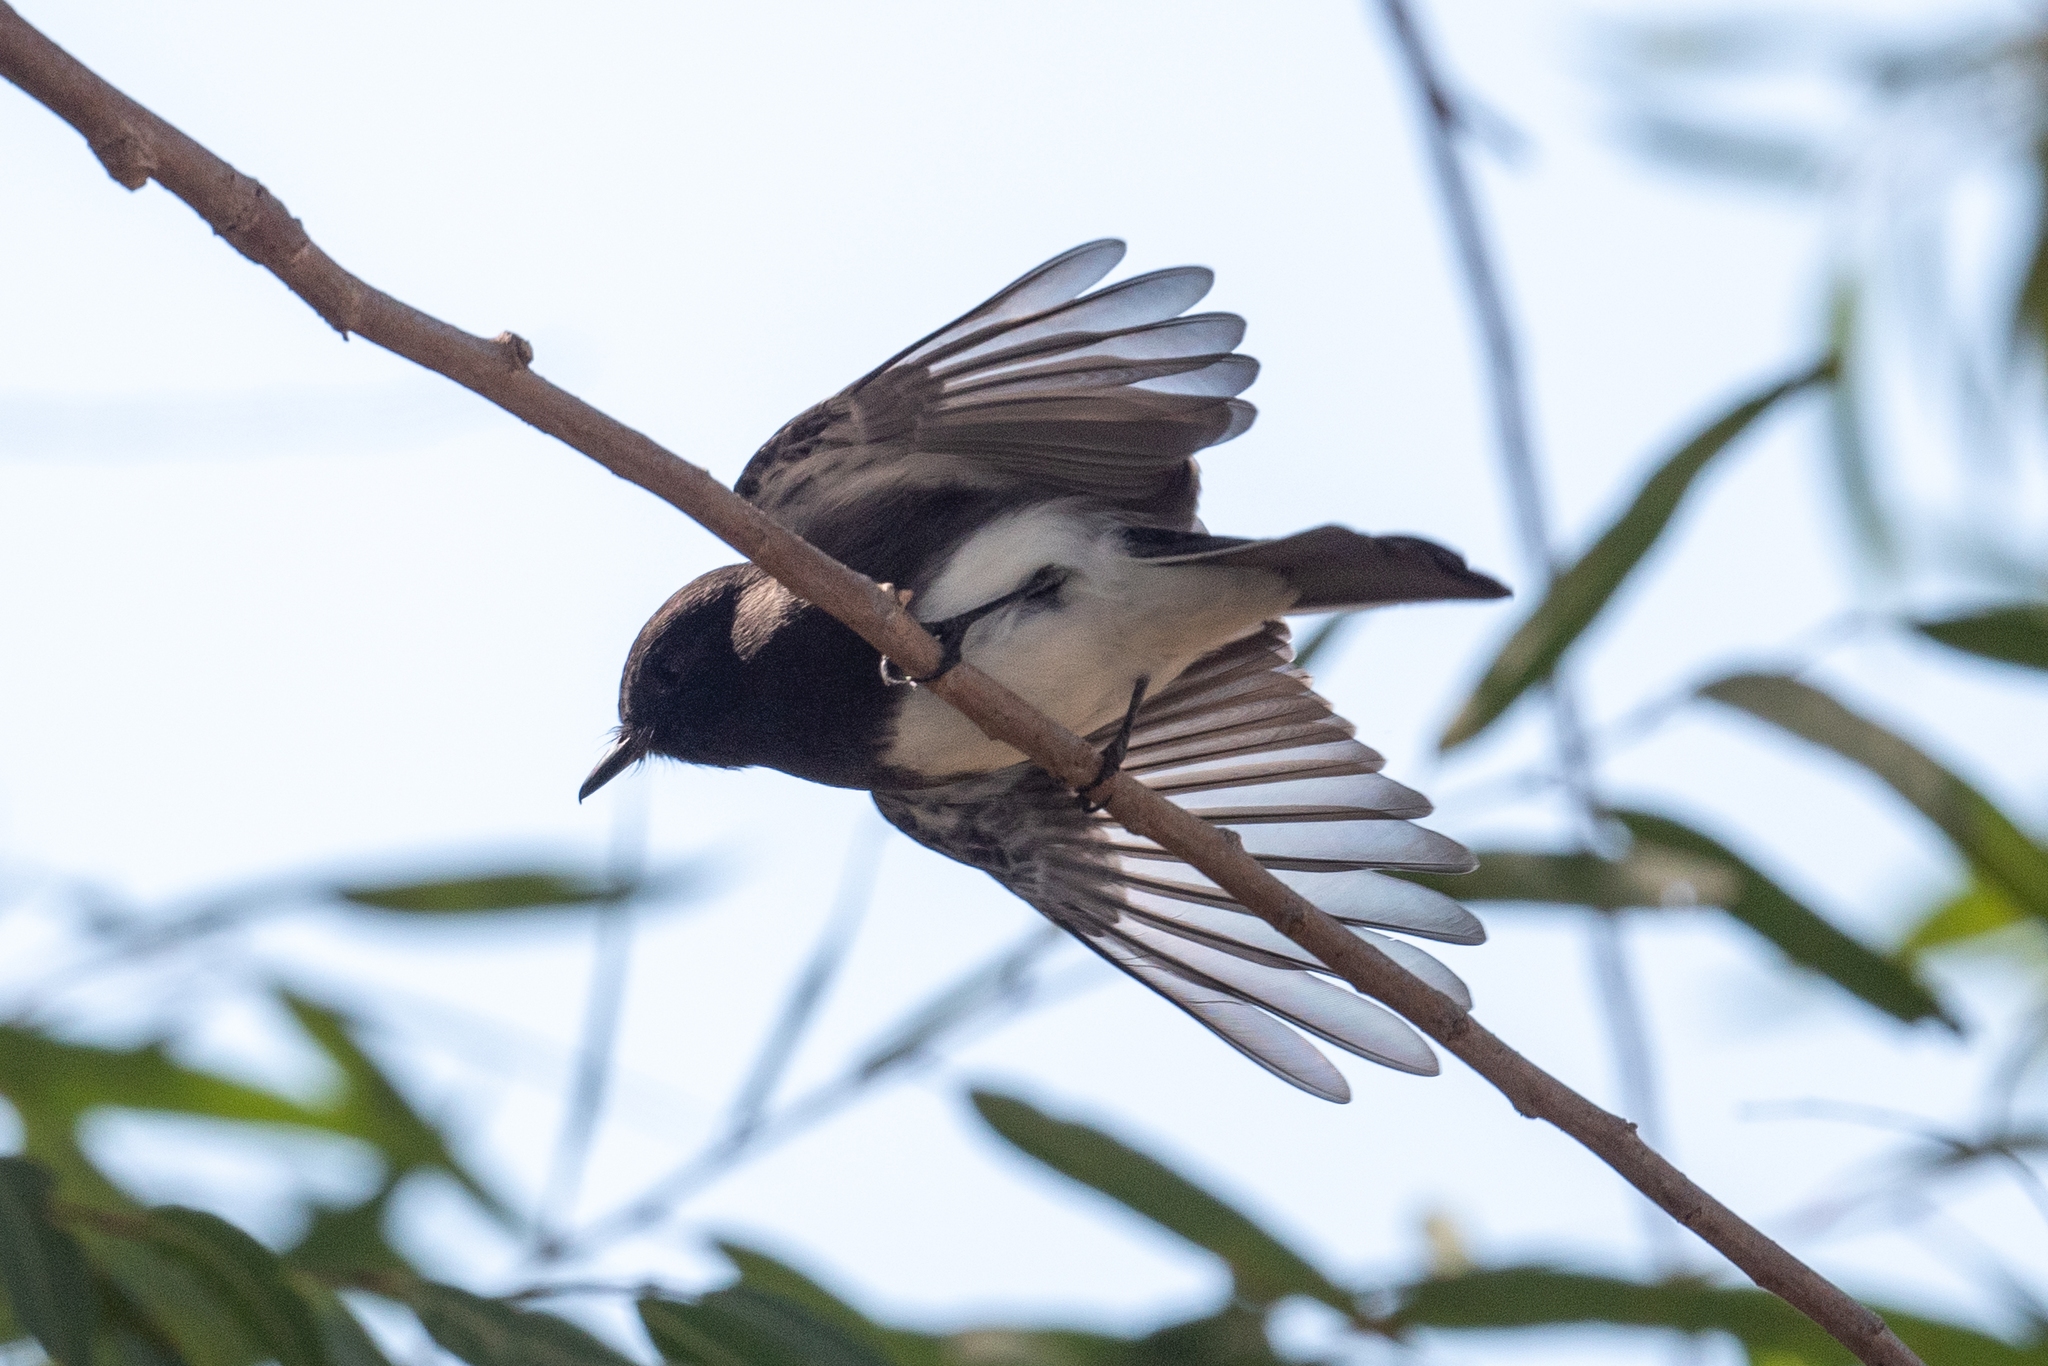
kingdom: Animalia
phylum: Chordata
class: Aves
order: Passeriformes
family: Tyrannidae
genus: Sayornis
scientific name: Sayornis nigricans
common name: Black phoebe
